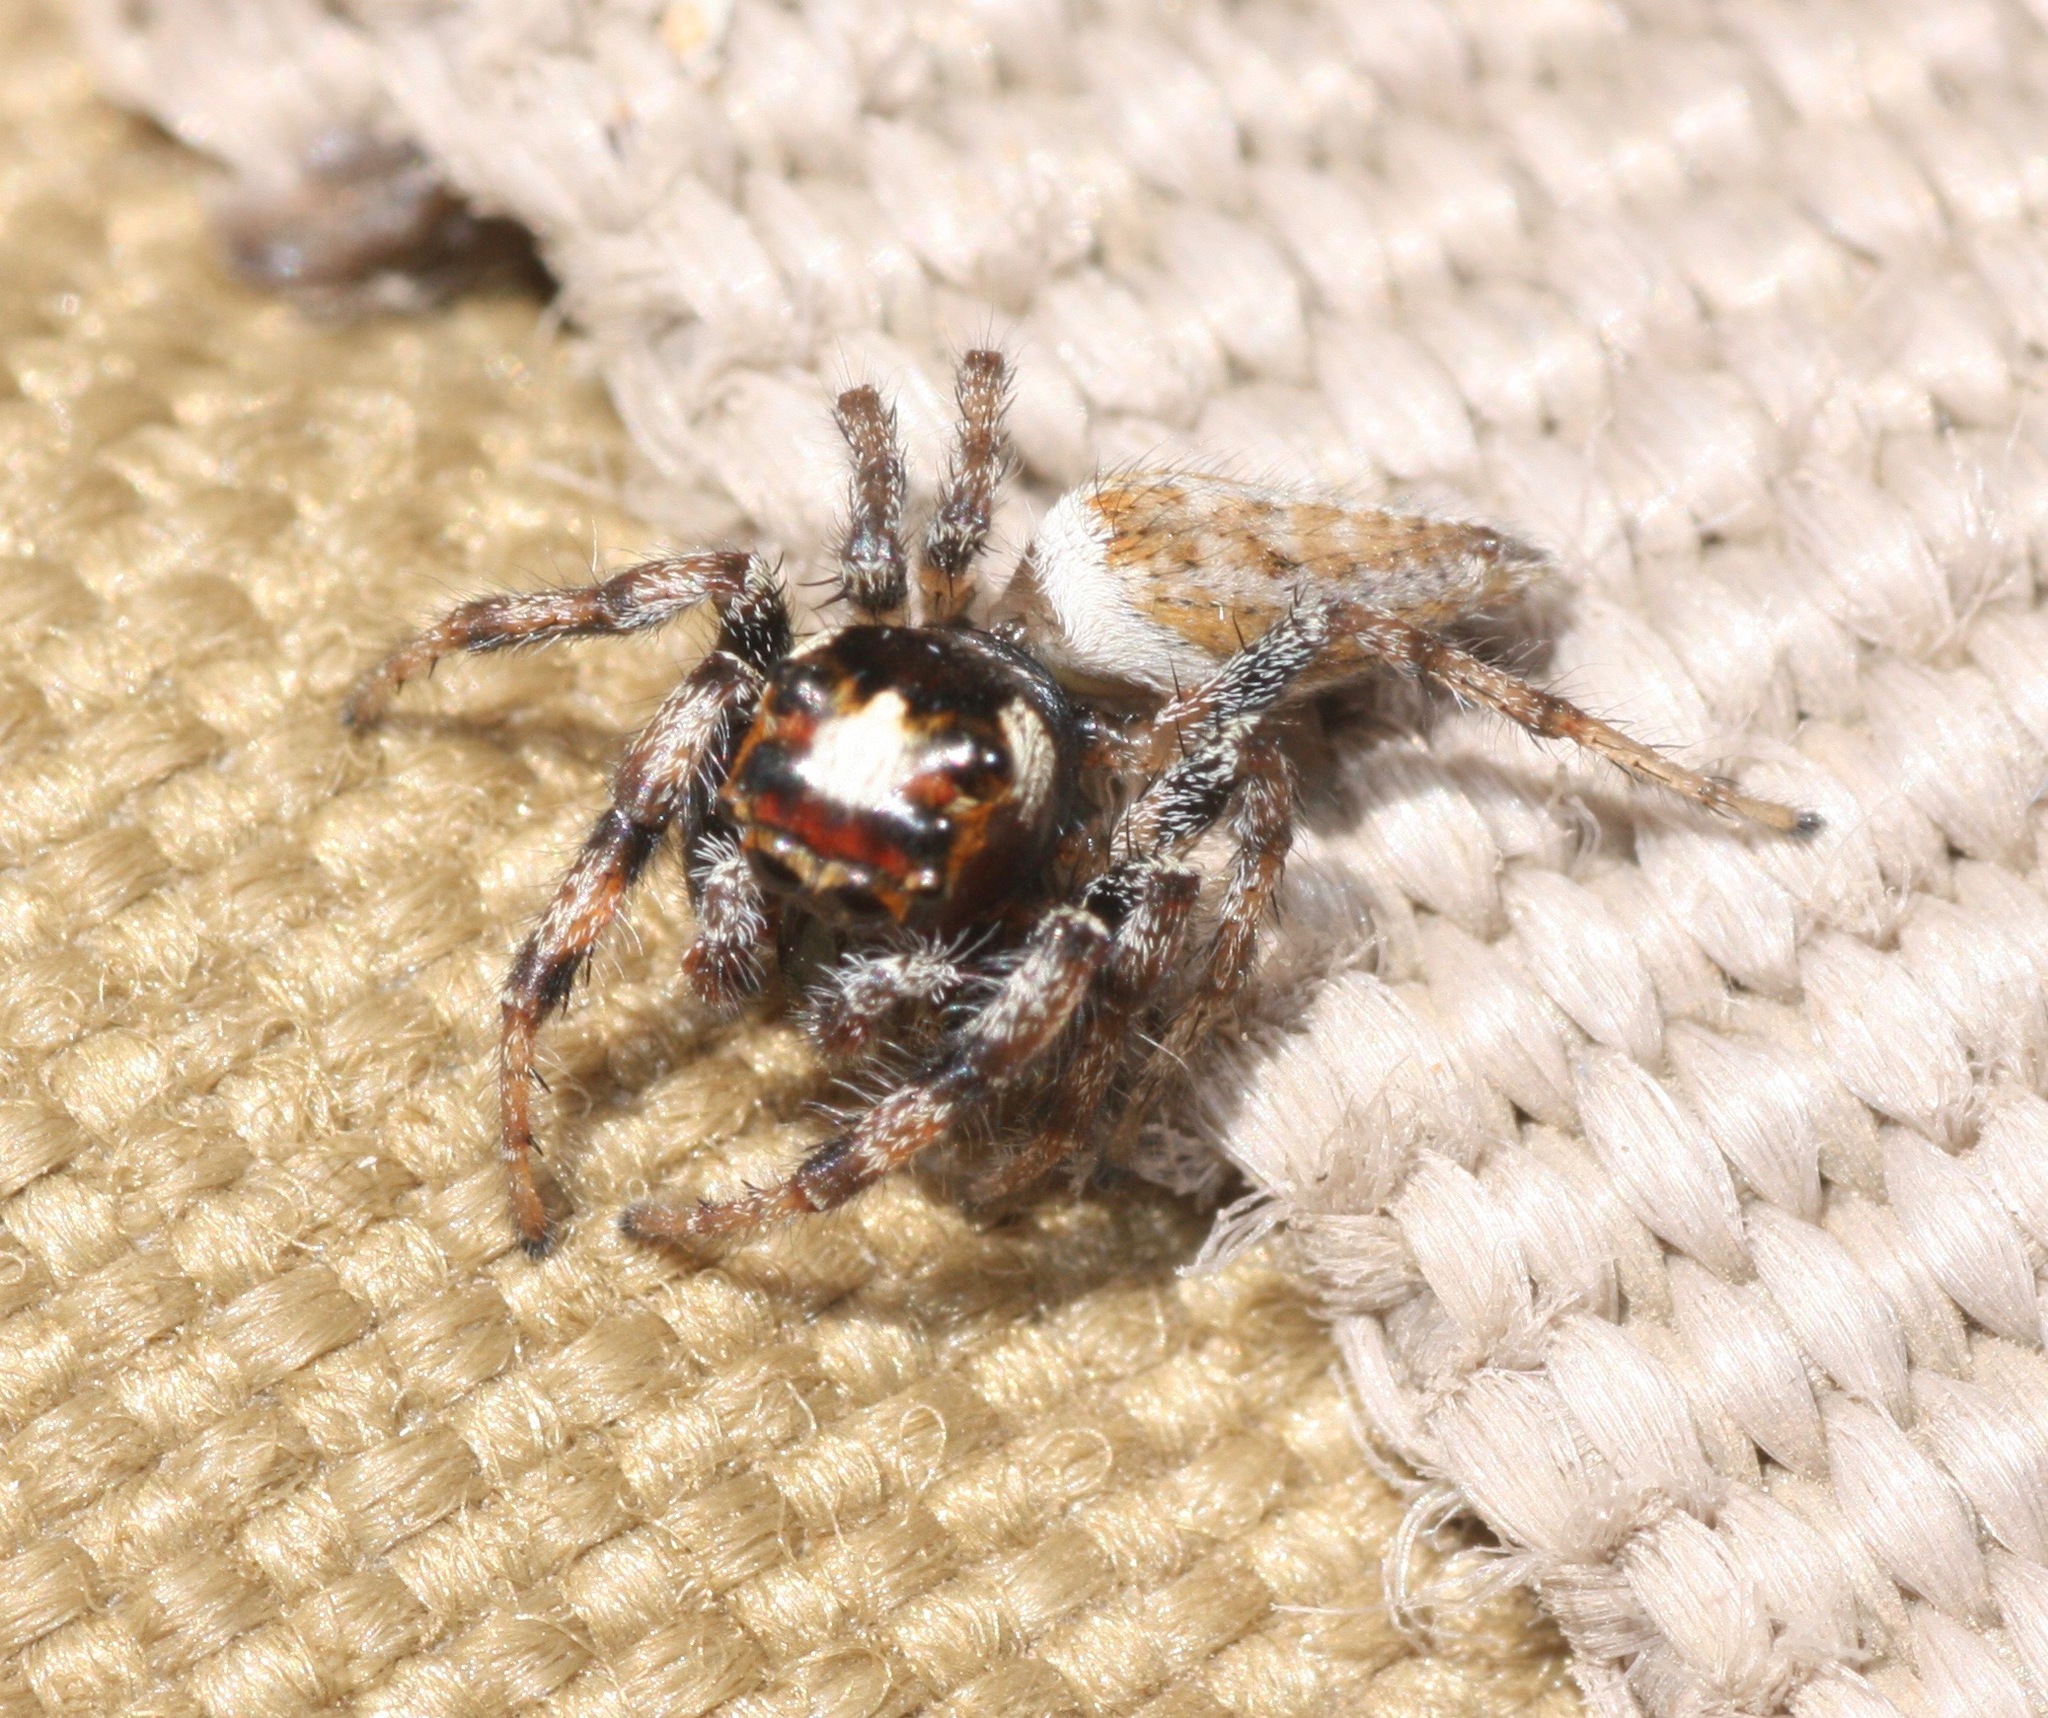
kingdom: Animalia
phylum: Arthropoda
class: Arachnida
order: Araneae
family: Salticidae
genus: Colonus
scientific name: Colonus hesperus
